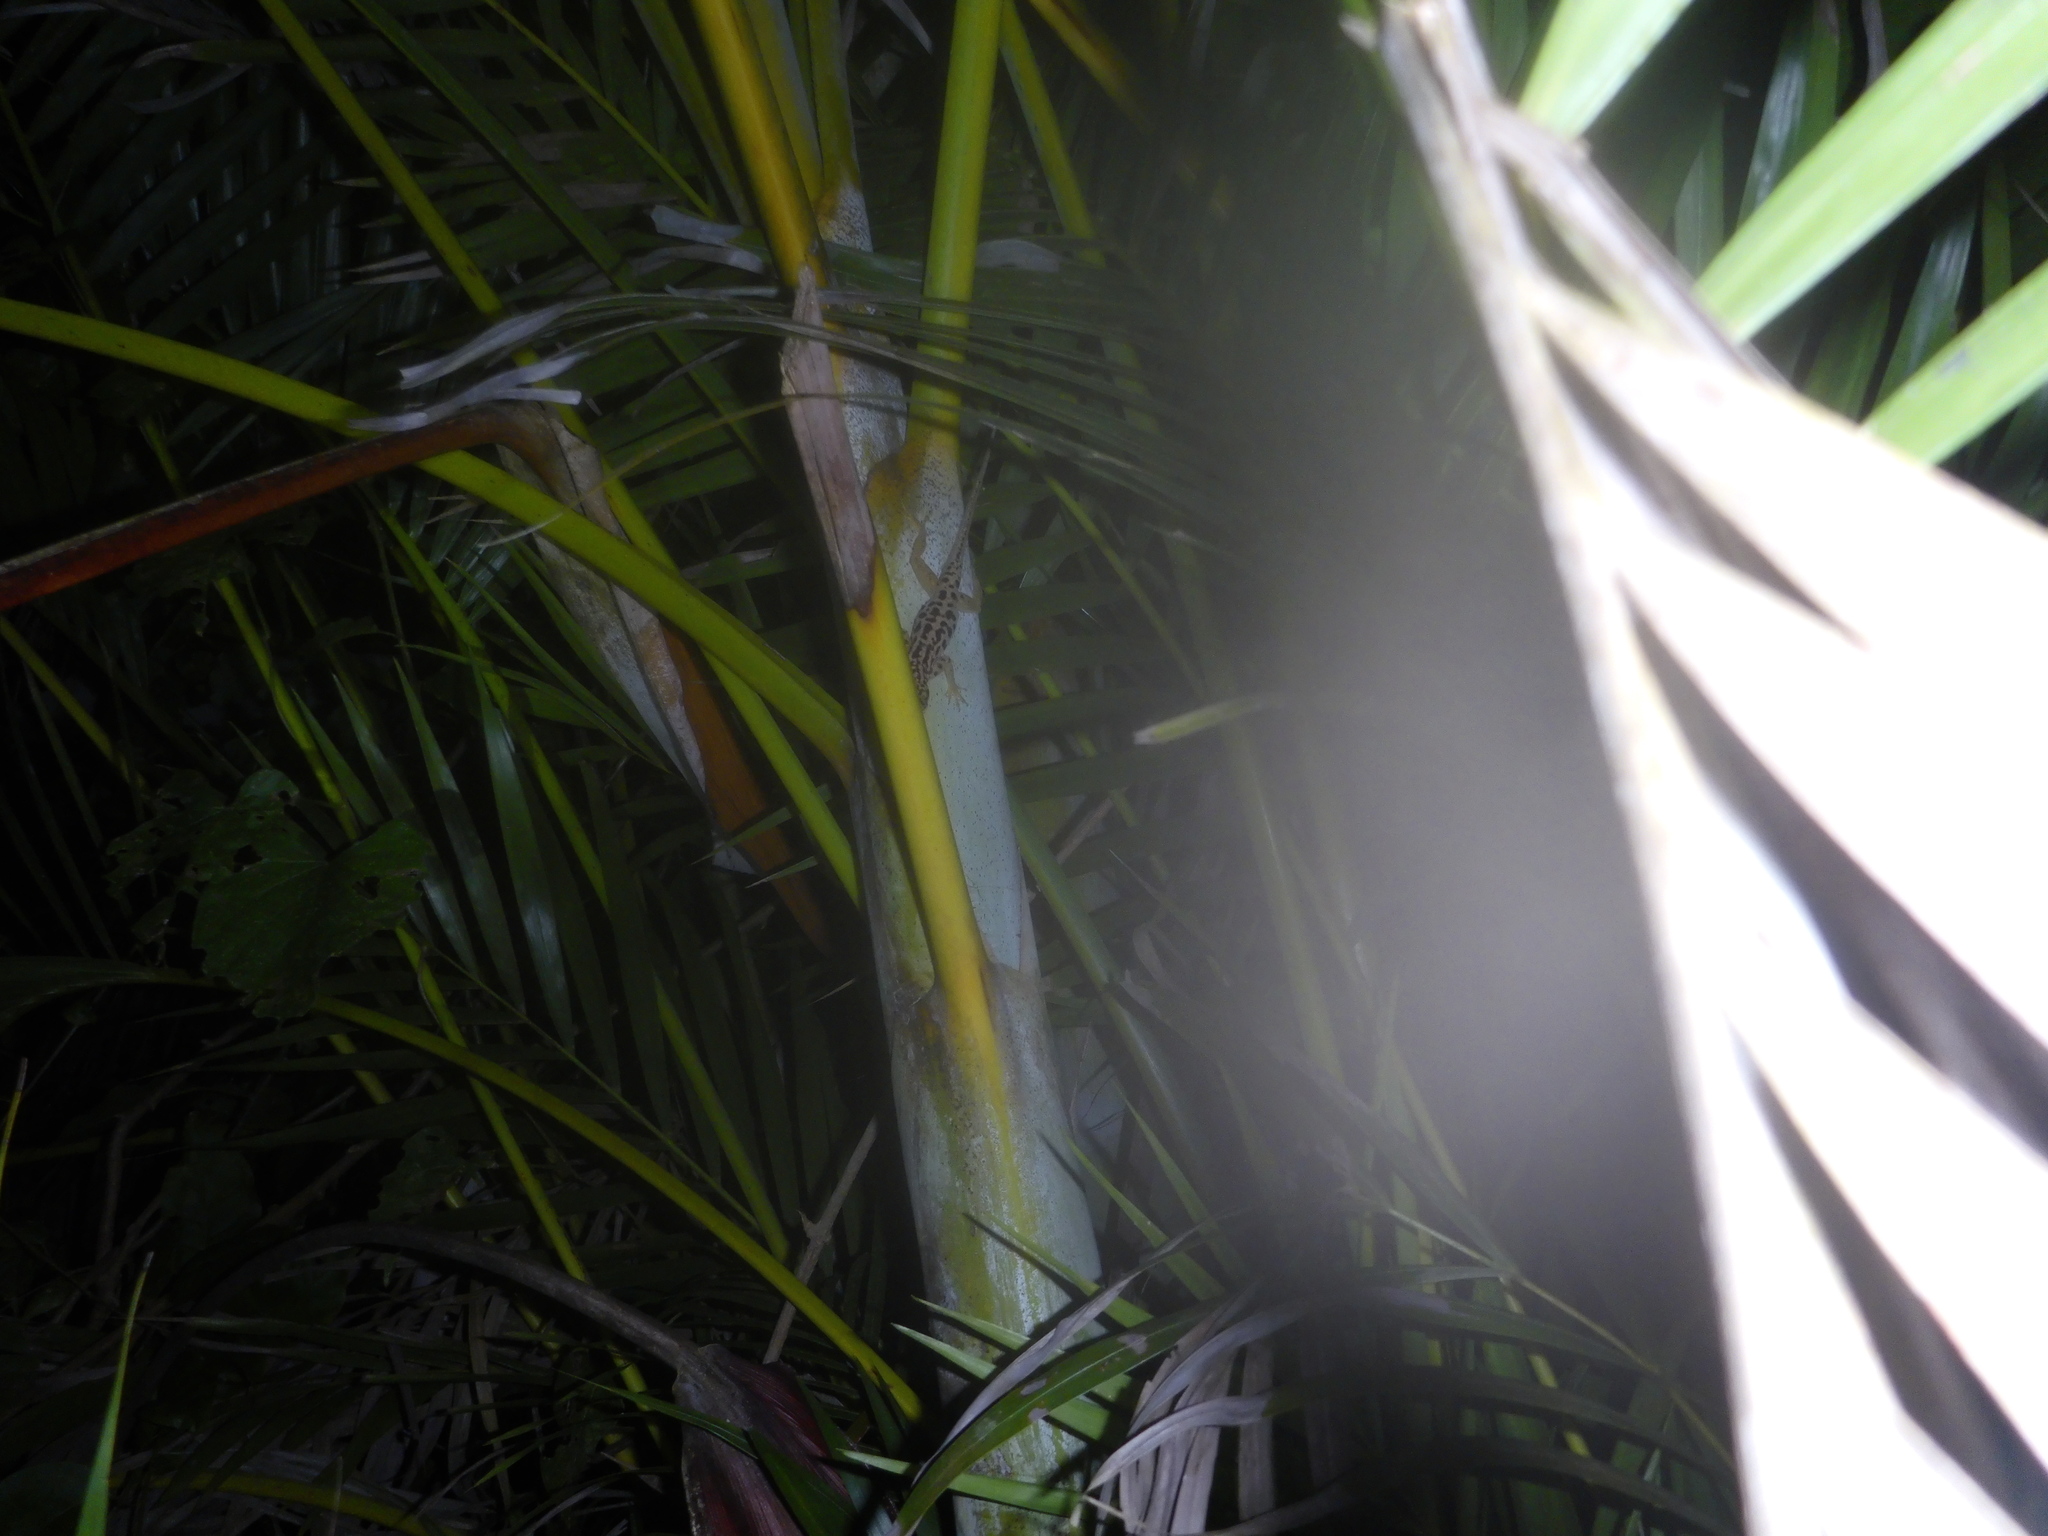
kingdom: Animalia
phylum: Chordata
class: Squamata
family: Dactyloidae
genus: Anolis
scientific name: Anolis sabanus
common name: Saba anole
